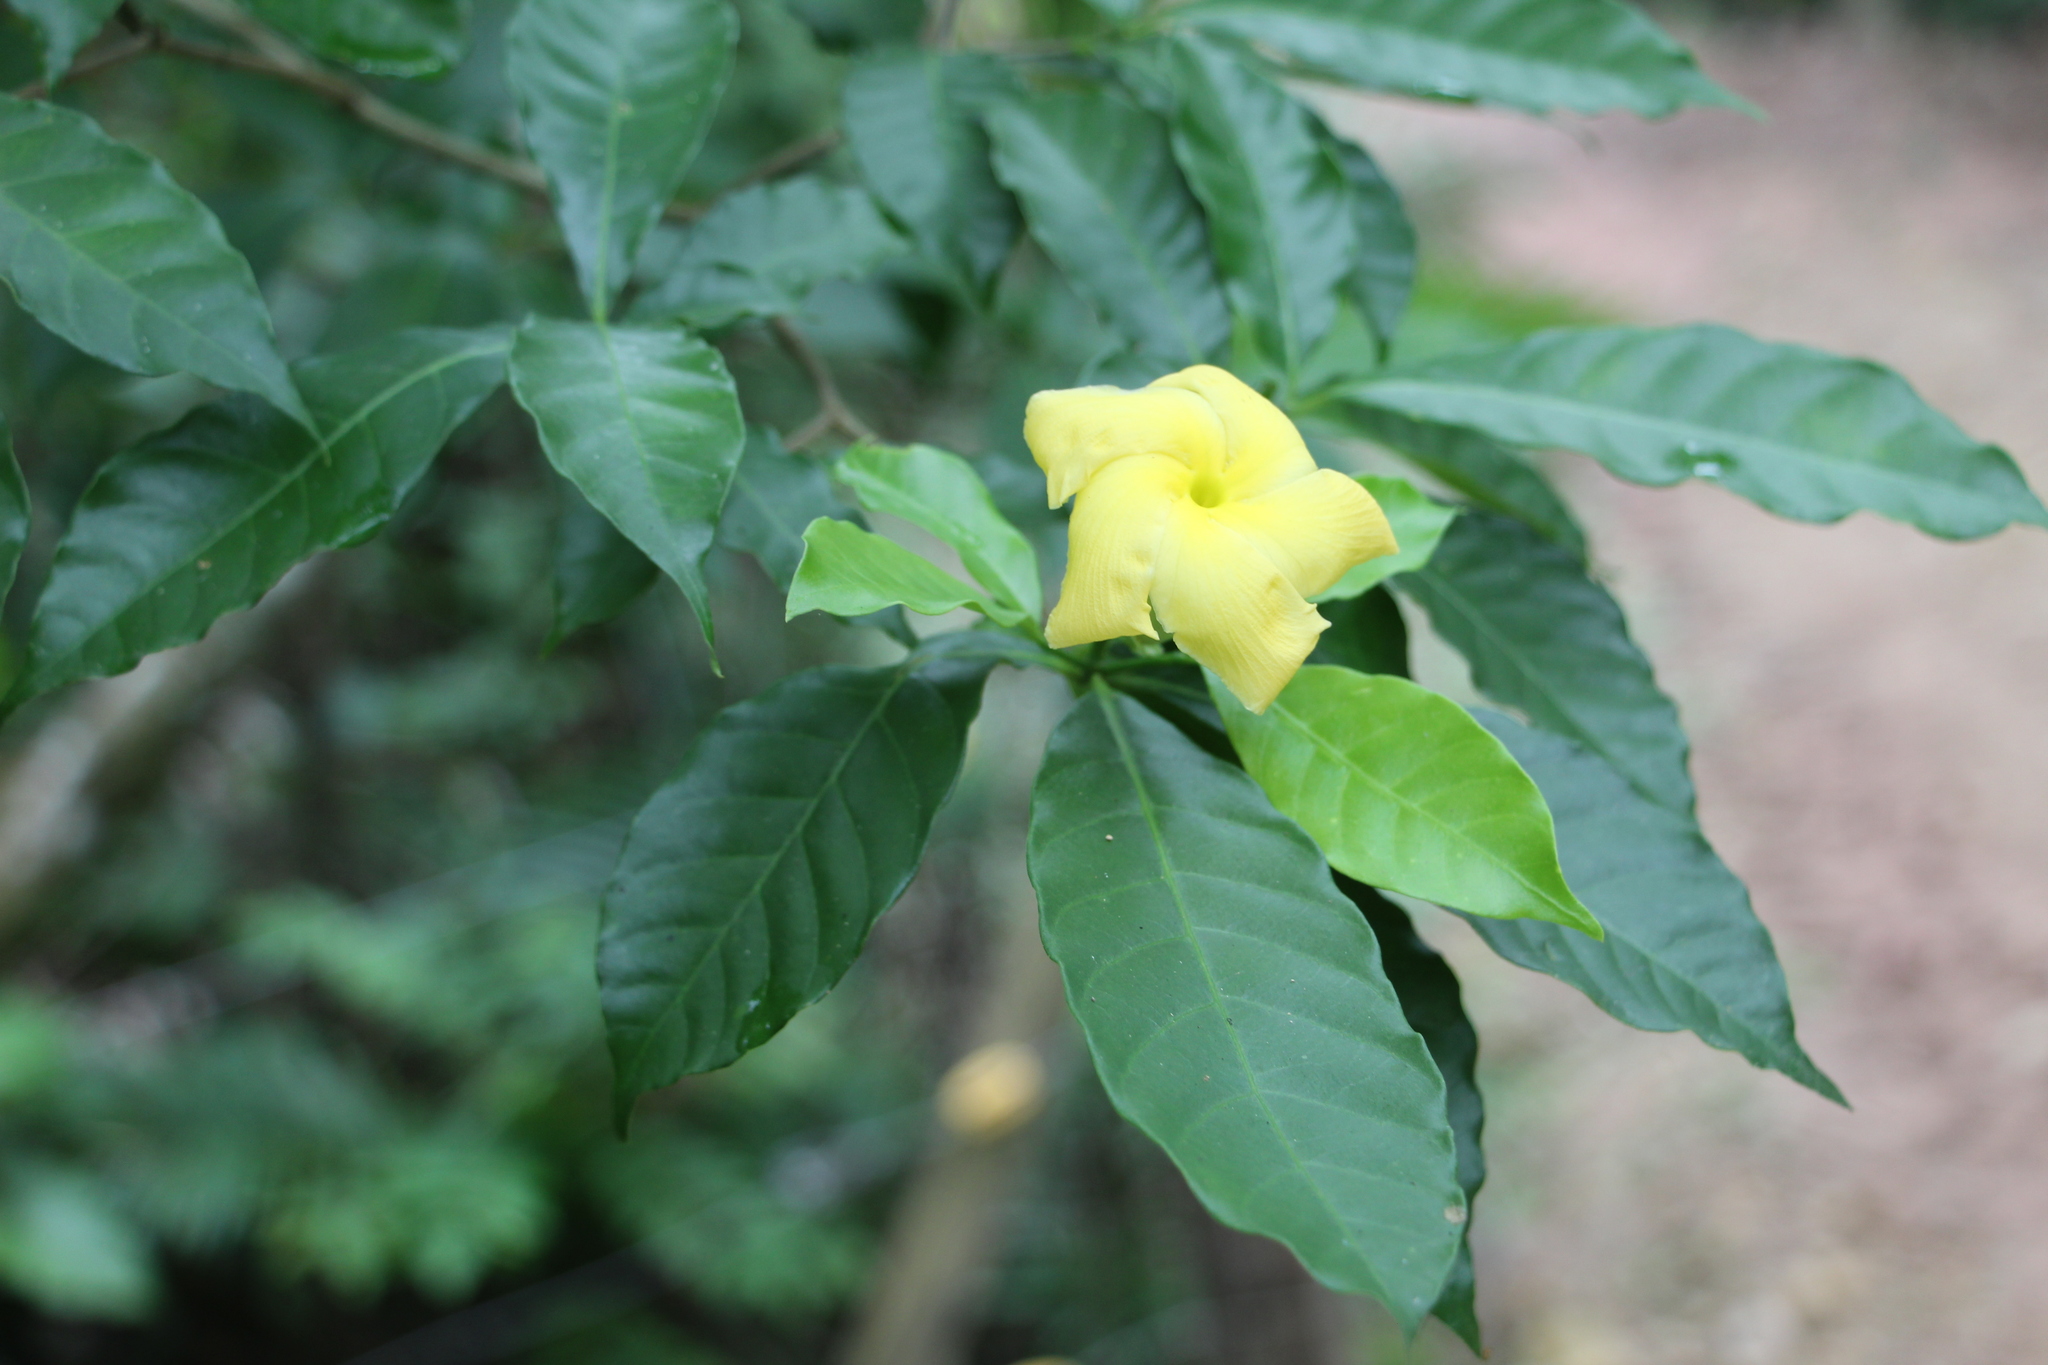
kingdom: Plantae
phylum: Tracheophyta
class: Magnoliopsida
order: Gentianales
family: Apocynaceae
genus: Tabernaemontana
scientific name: Tabernaemontana grandiflora
